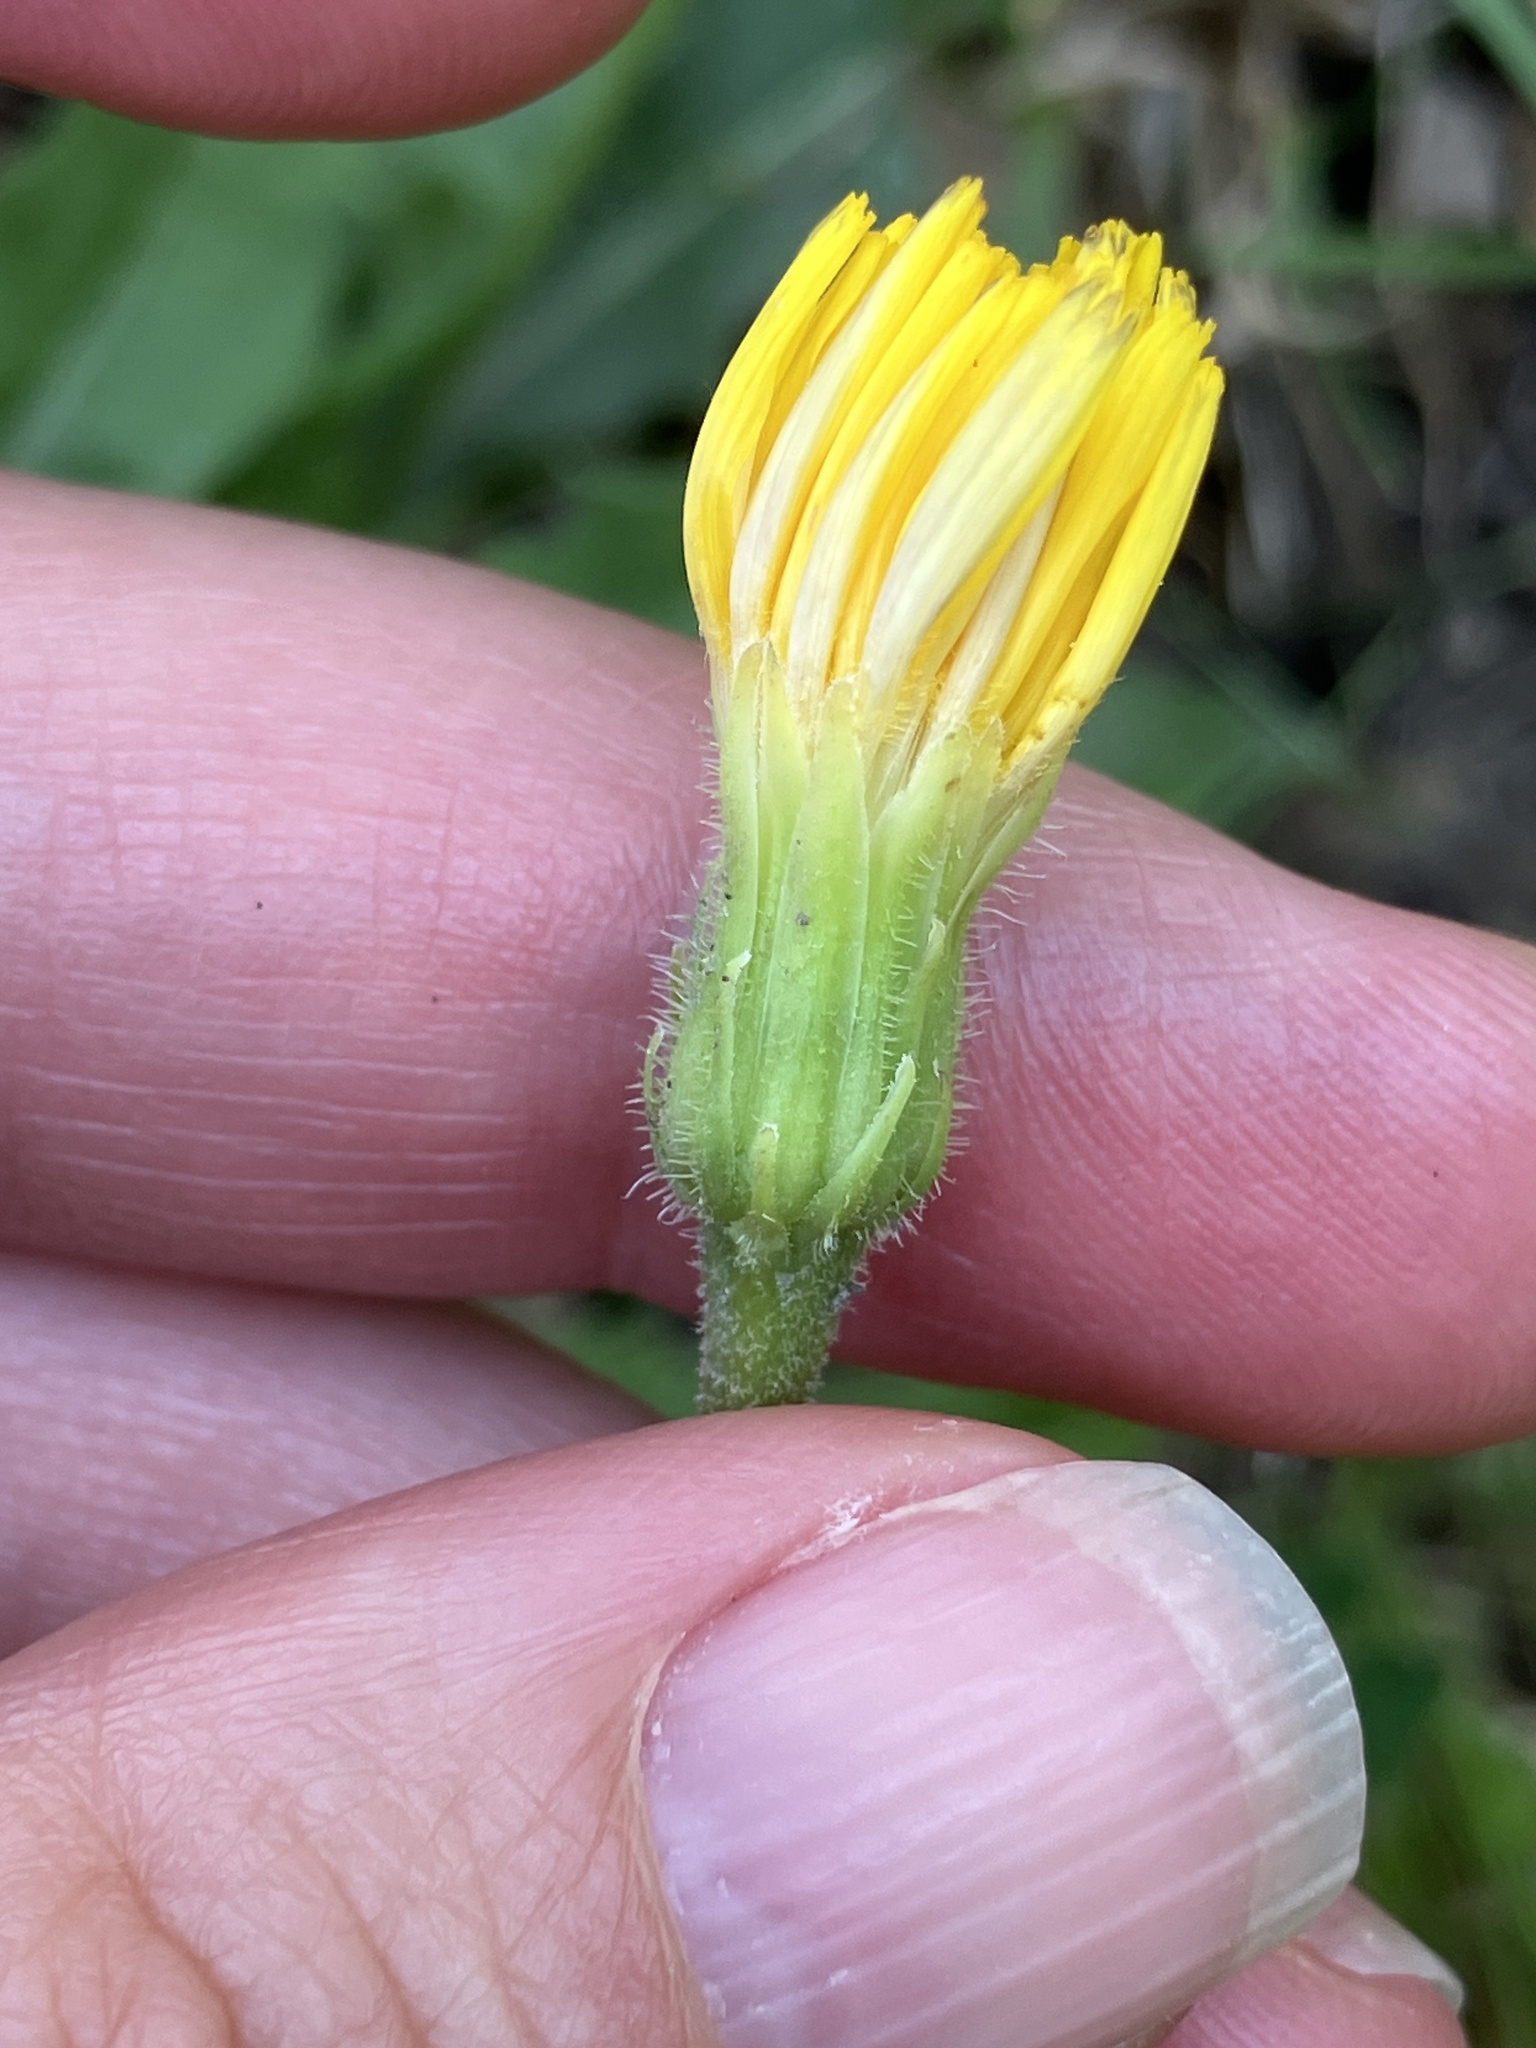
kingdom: Plantae
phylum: Tracheophyta
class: Magnoliopsida
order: Asterales
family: Asteraceae
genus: Leontodon
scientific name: Leontodon hispidus
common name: Rough hawkbit
